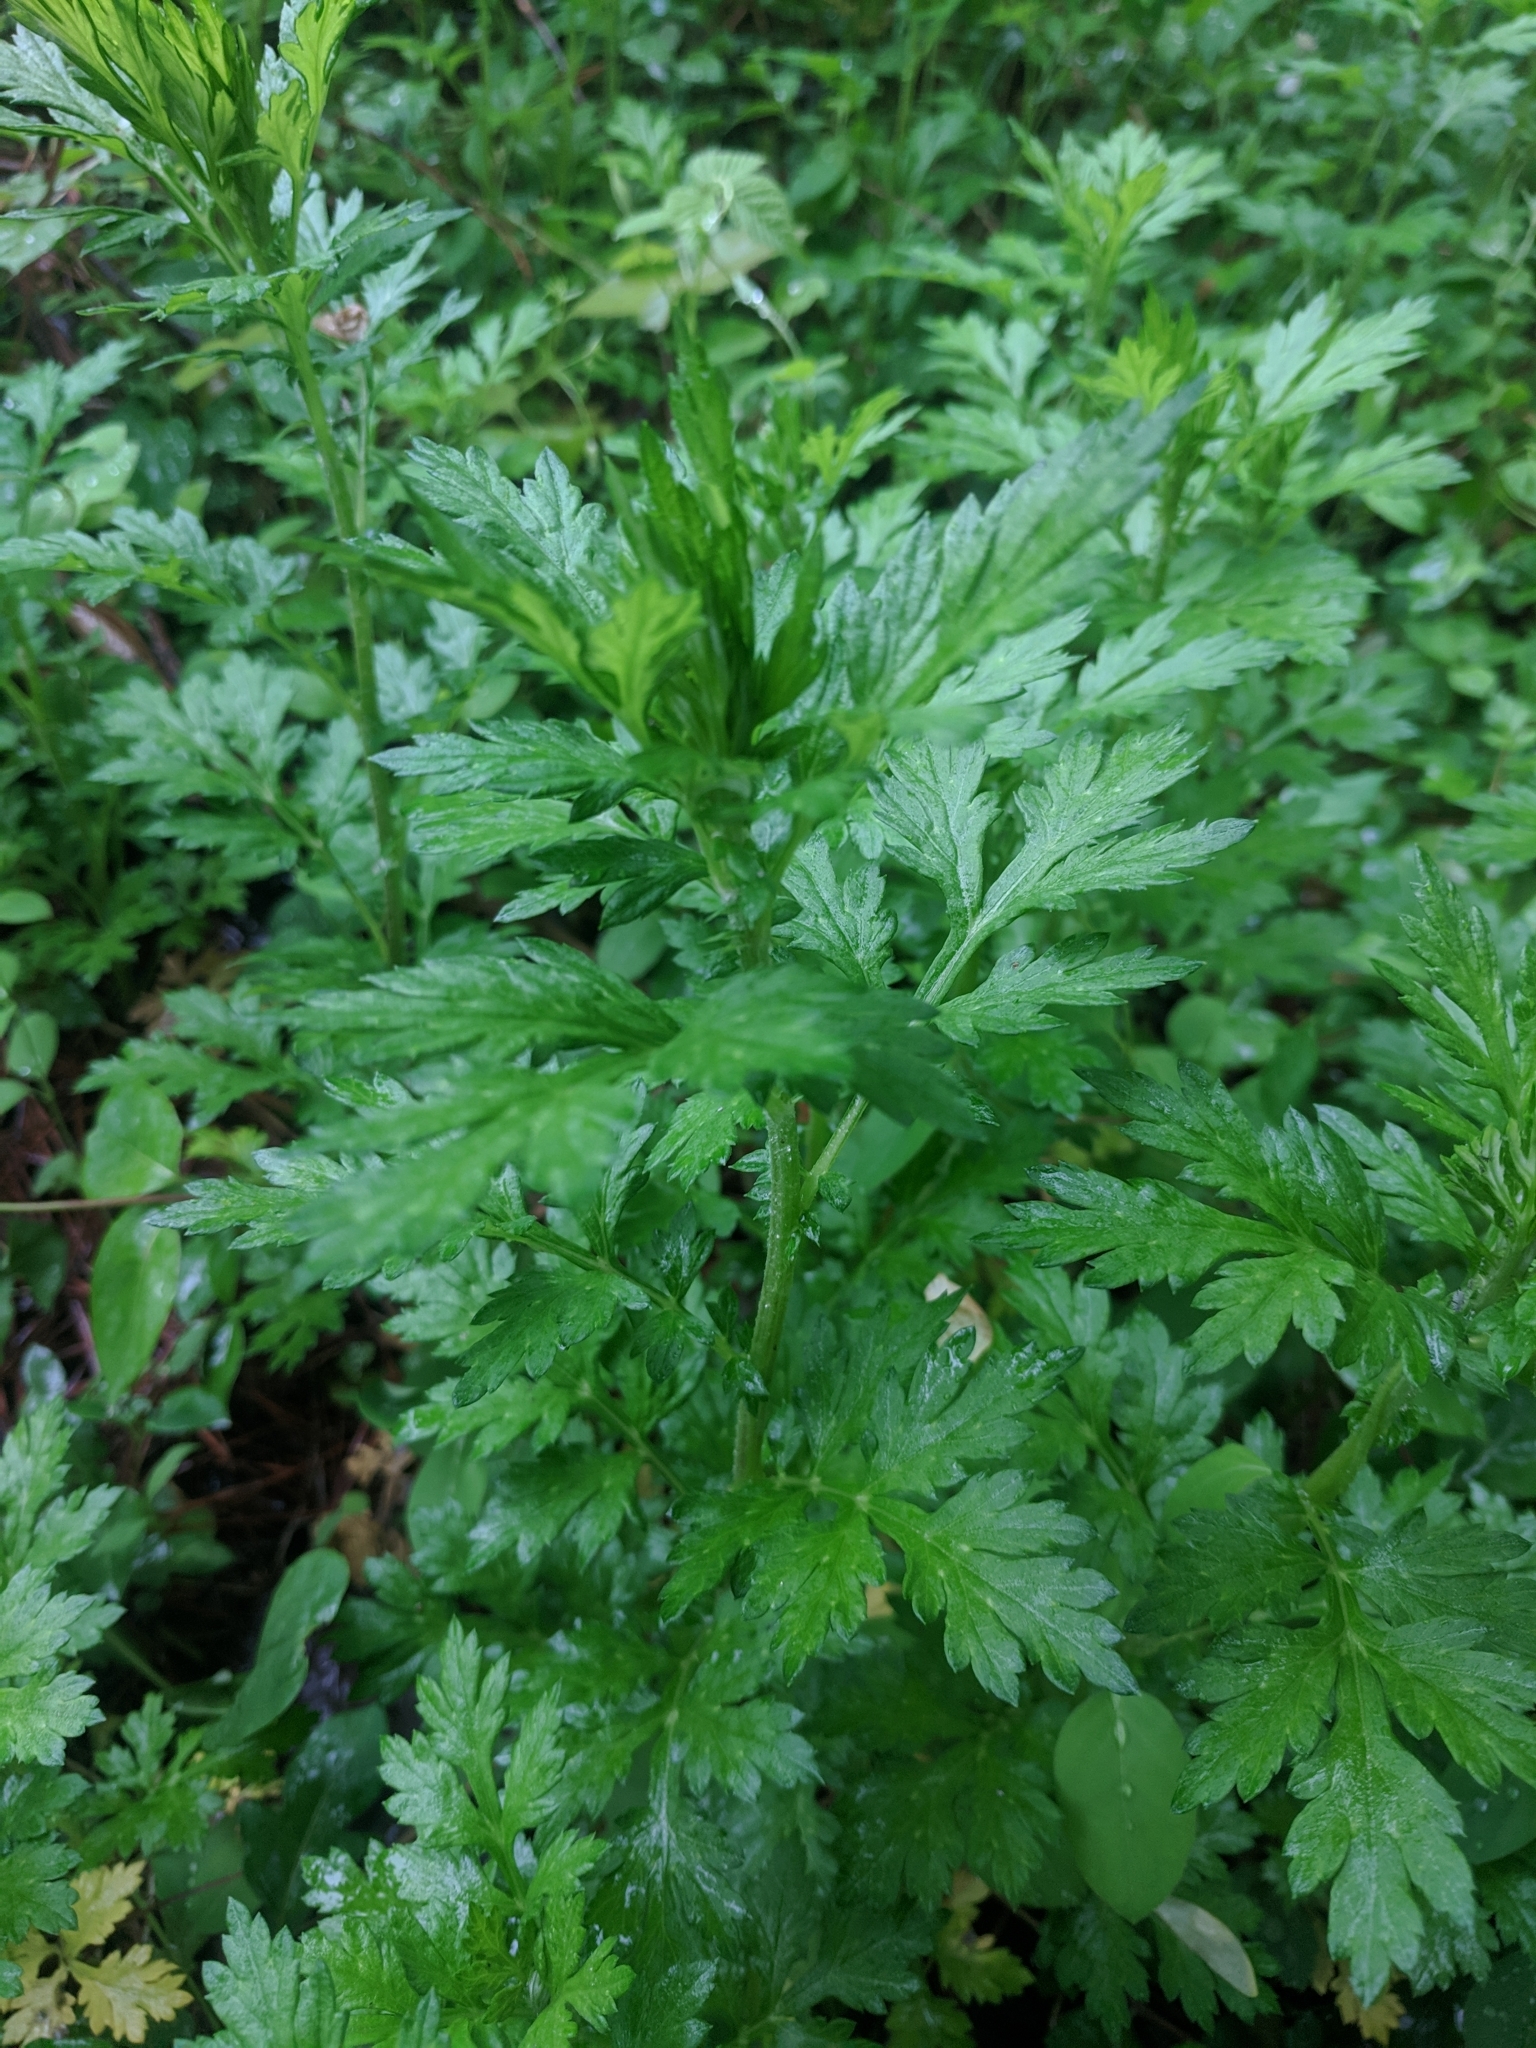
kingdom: Plantae
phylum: Tracheophyta
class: Magnoliopsida
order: Asterales
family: Asteraceae
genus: Artemisia
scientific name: Artemisia vulgaris
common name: Mugwort
